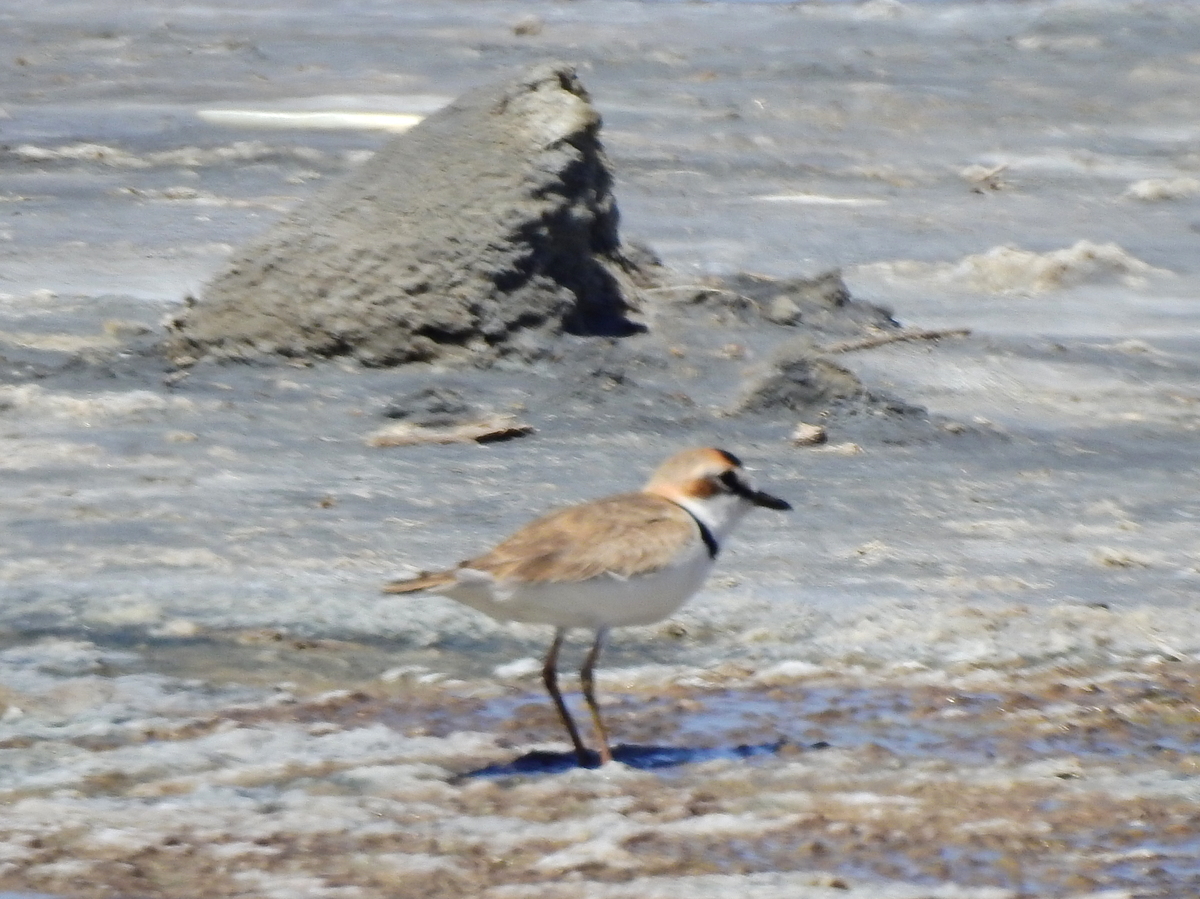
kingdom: Animalia
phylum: Chordata
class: Aves
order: Charadriiformes
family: Charadriidae
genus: Anarhynchus
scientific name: Anarhynchus
